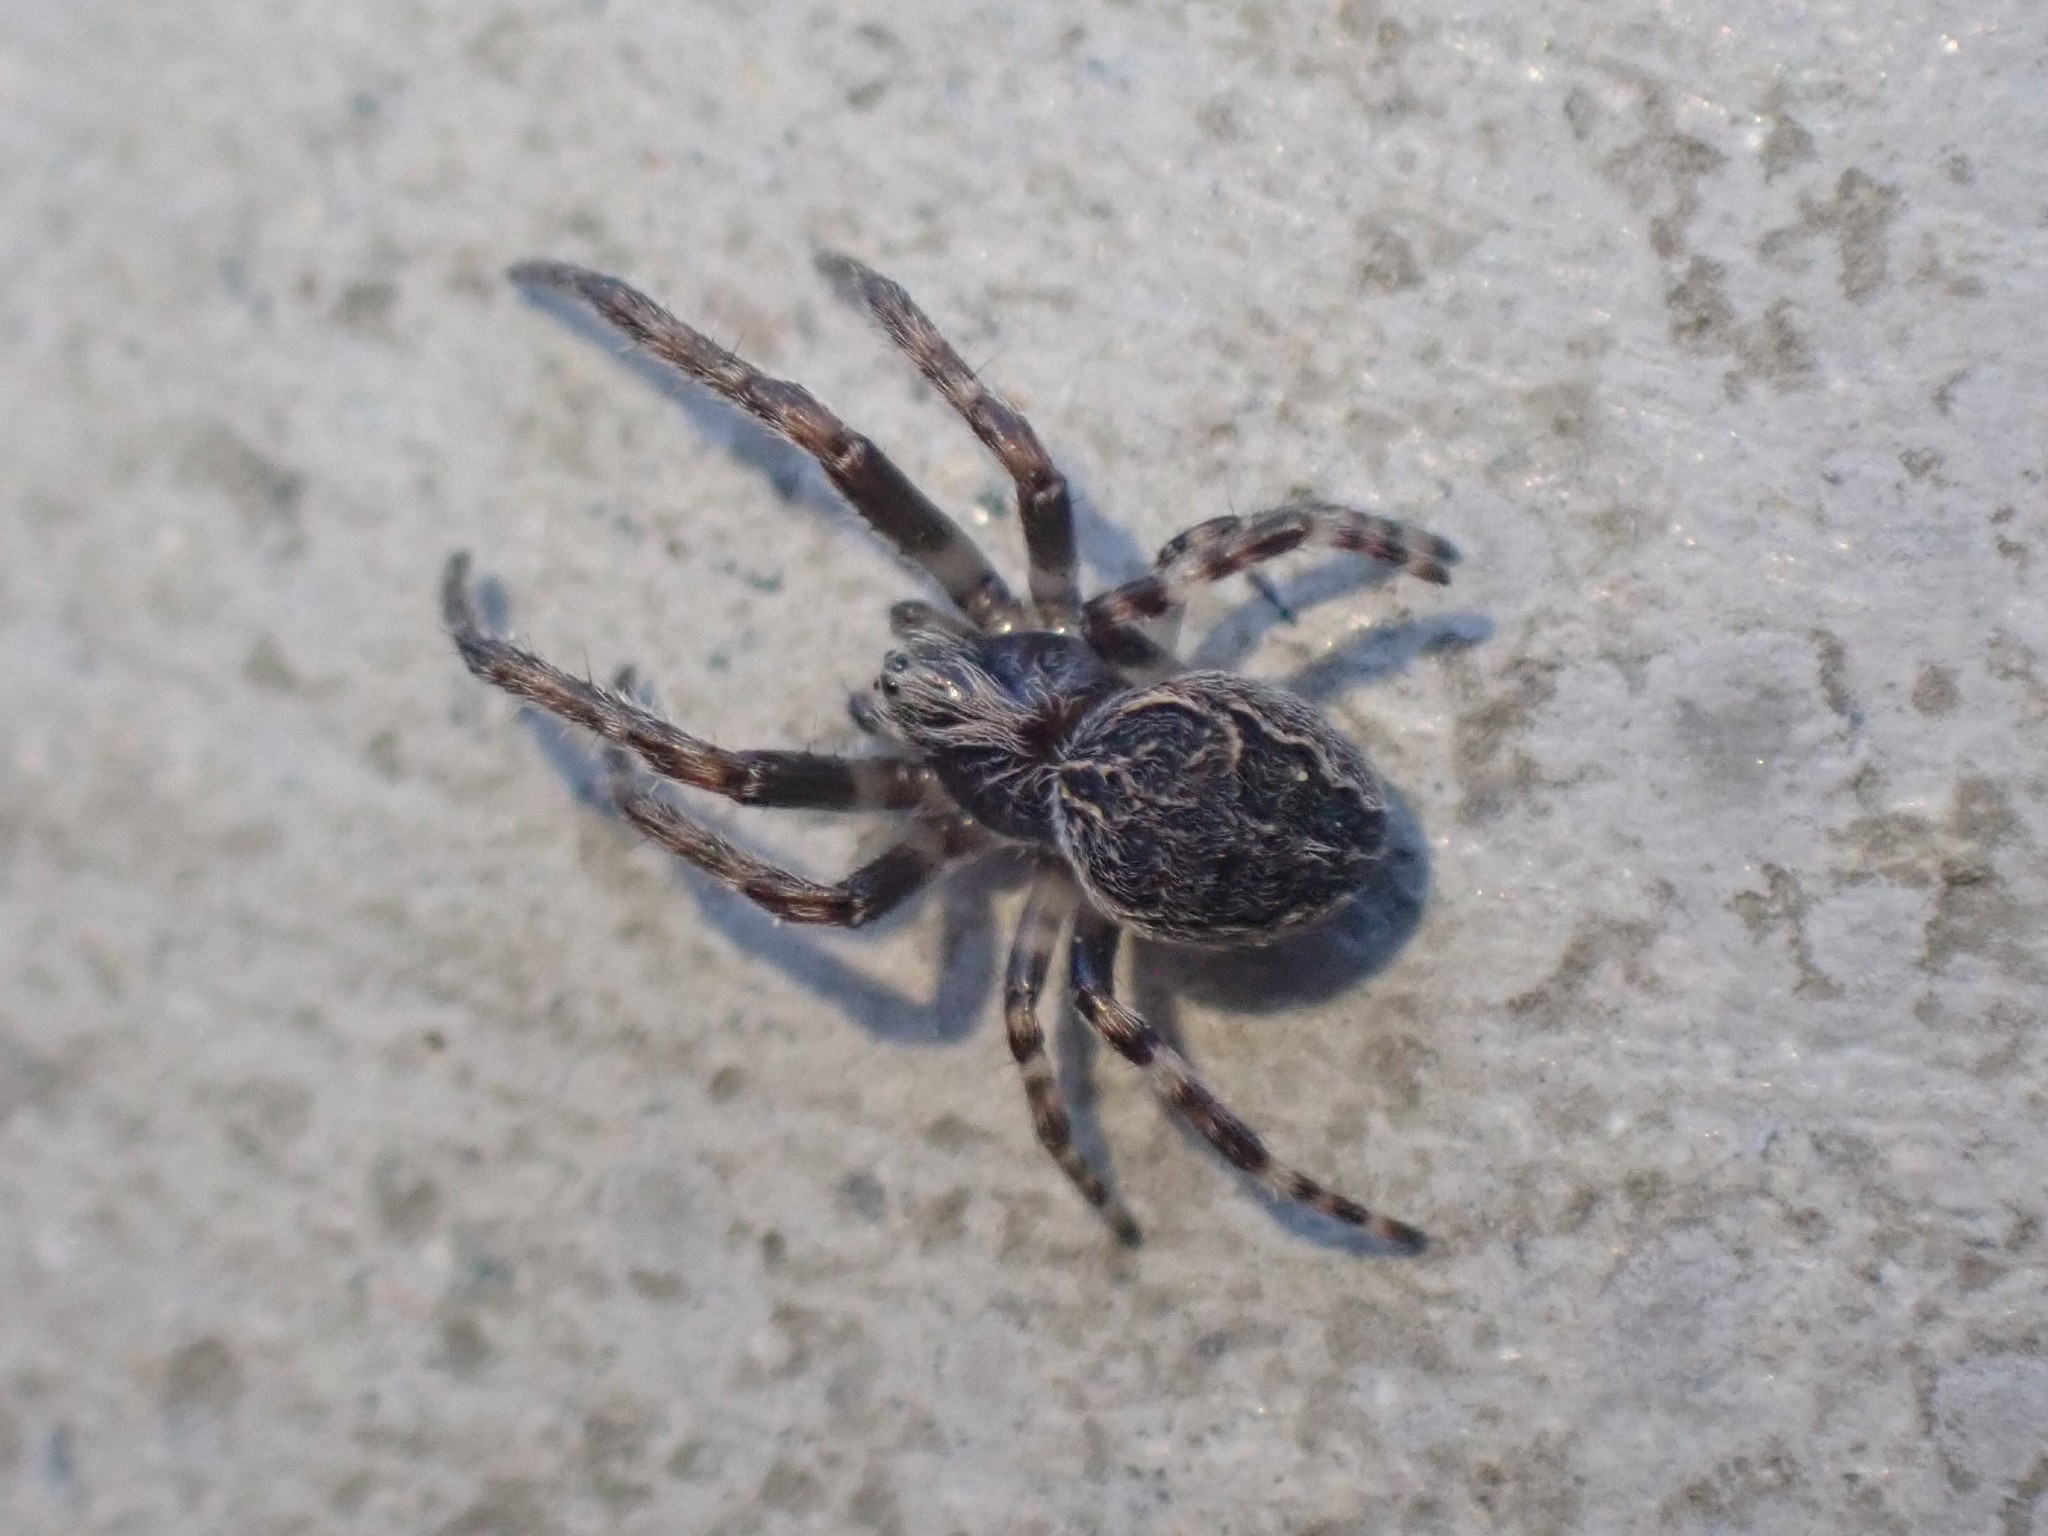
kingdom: Animalia
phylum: Arthropoda
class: Arachnida
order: Araneae
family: Araneidae
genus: Larinioides
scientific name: Larinioides sclopetarius
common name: Bridge orbweaver
